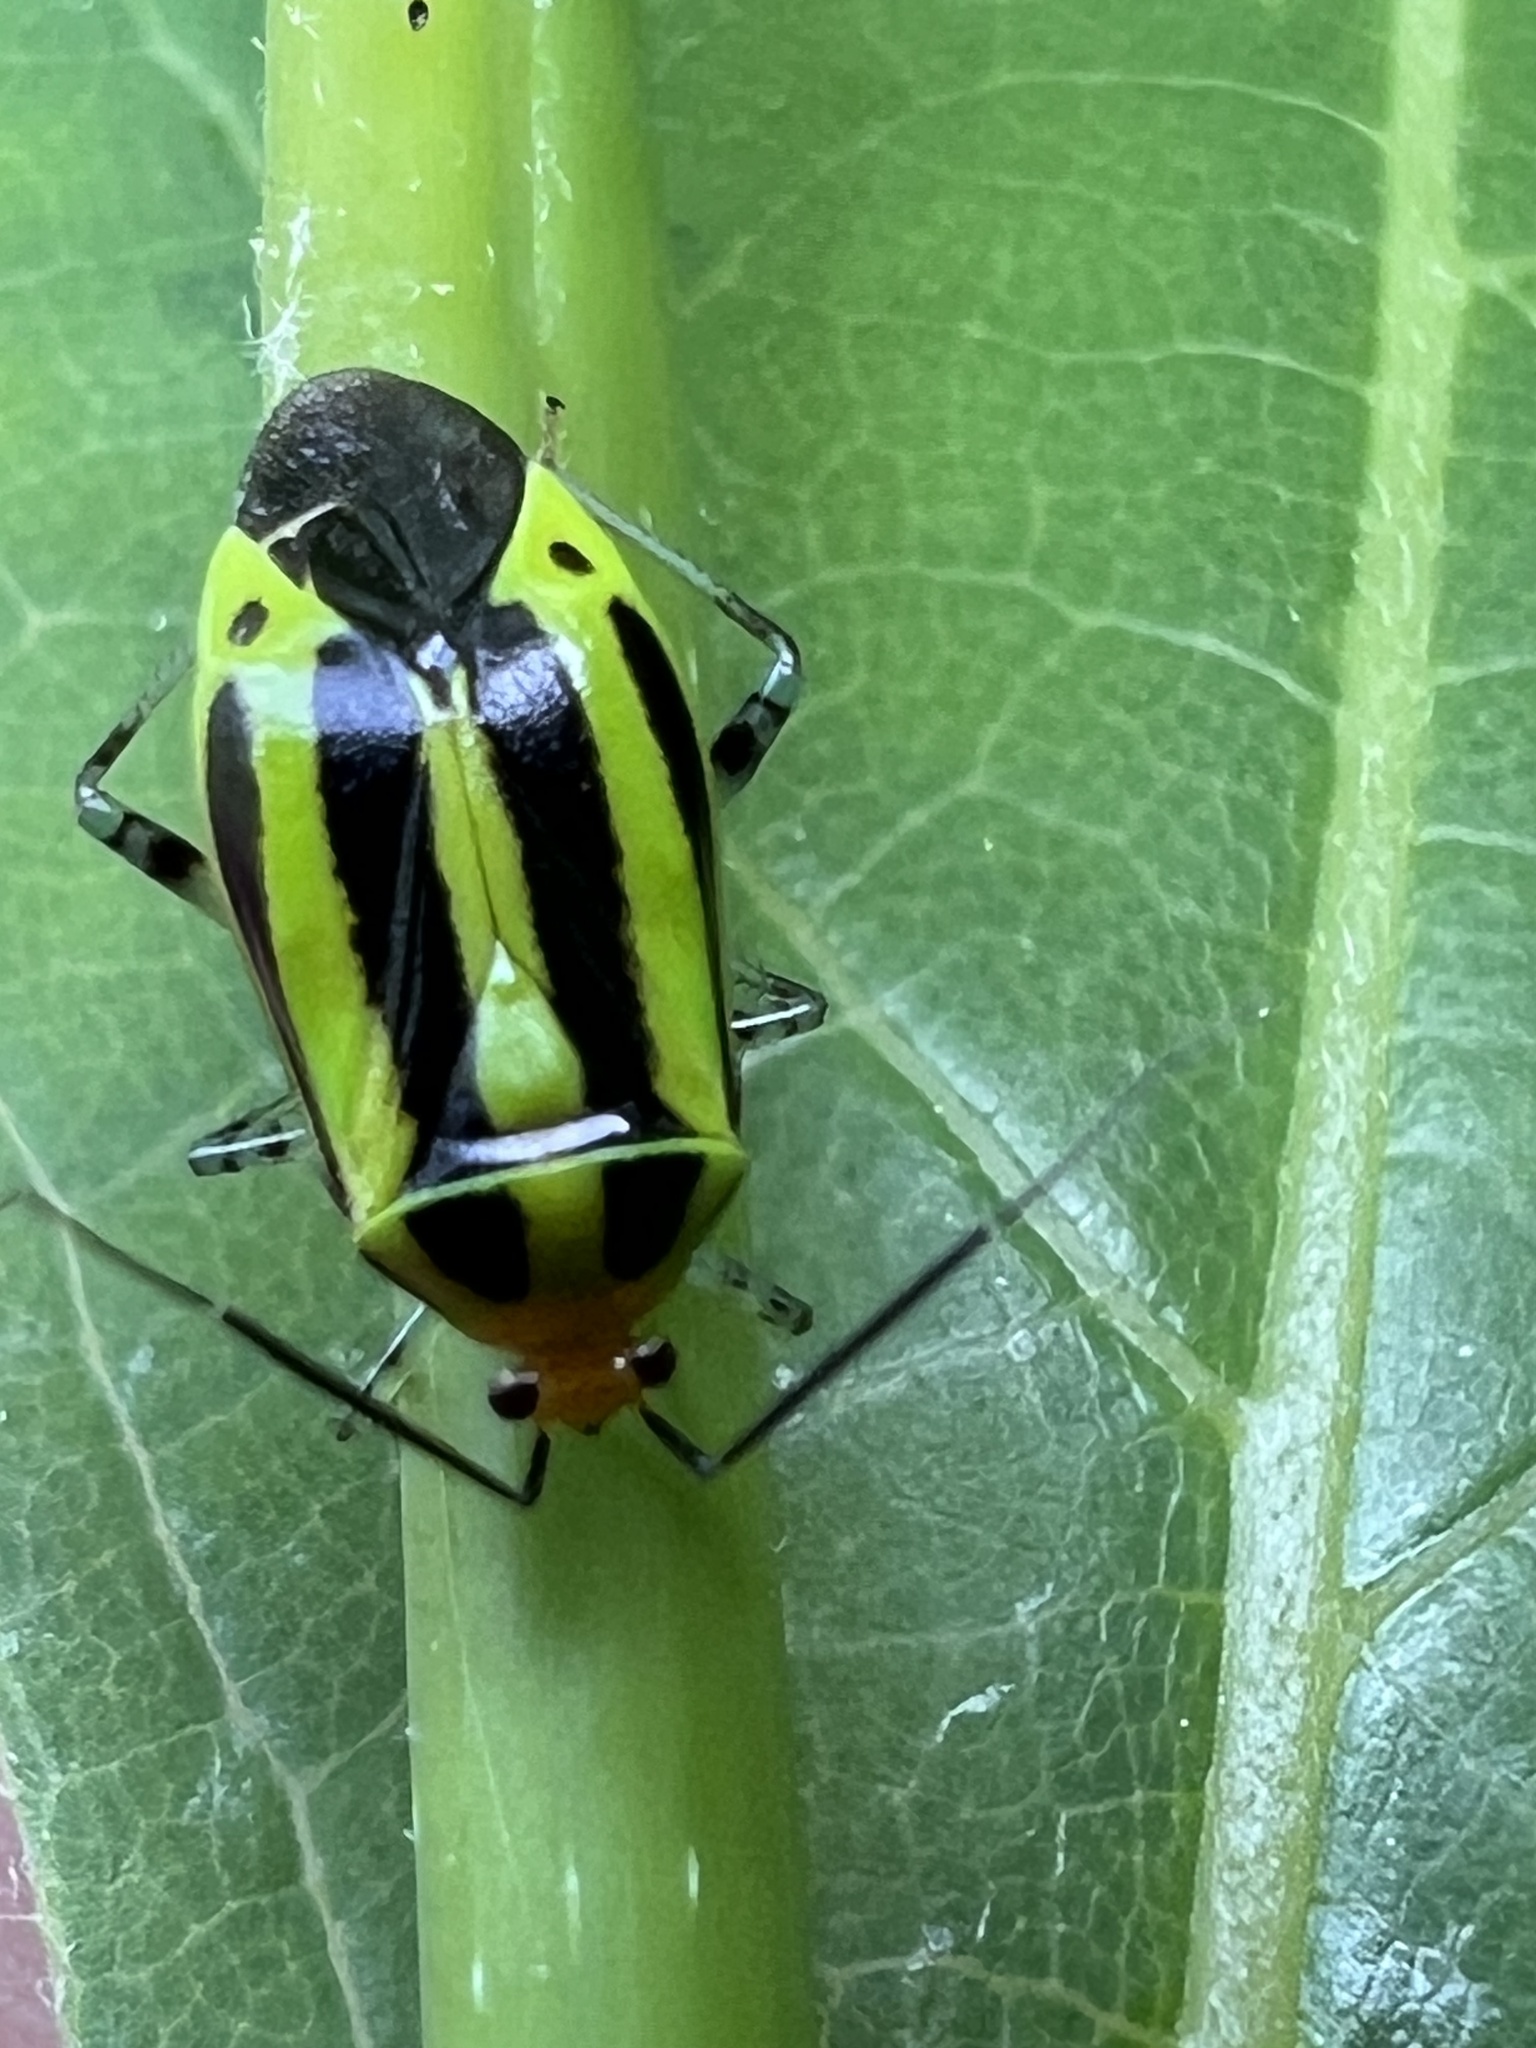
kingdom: Animalia
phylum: Arthropoda
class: Insecta
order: Hemiptera
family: Miridae
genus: Poecilocapsus
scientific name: Poecilocapsus lineatus
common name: Four-lined plant bug
